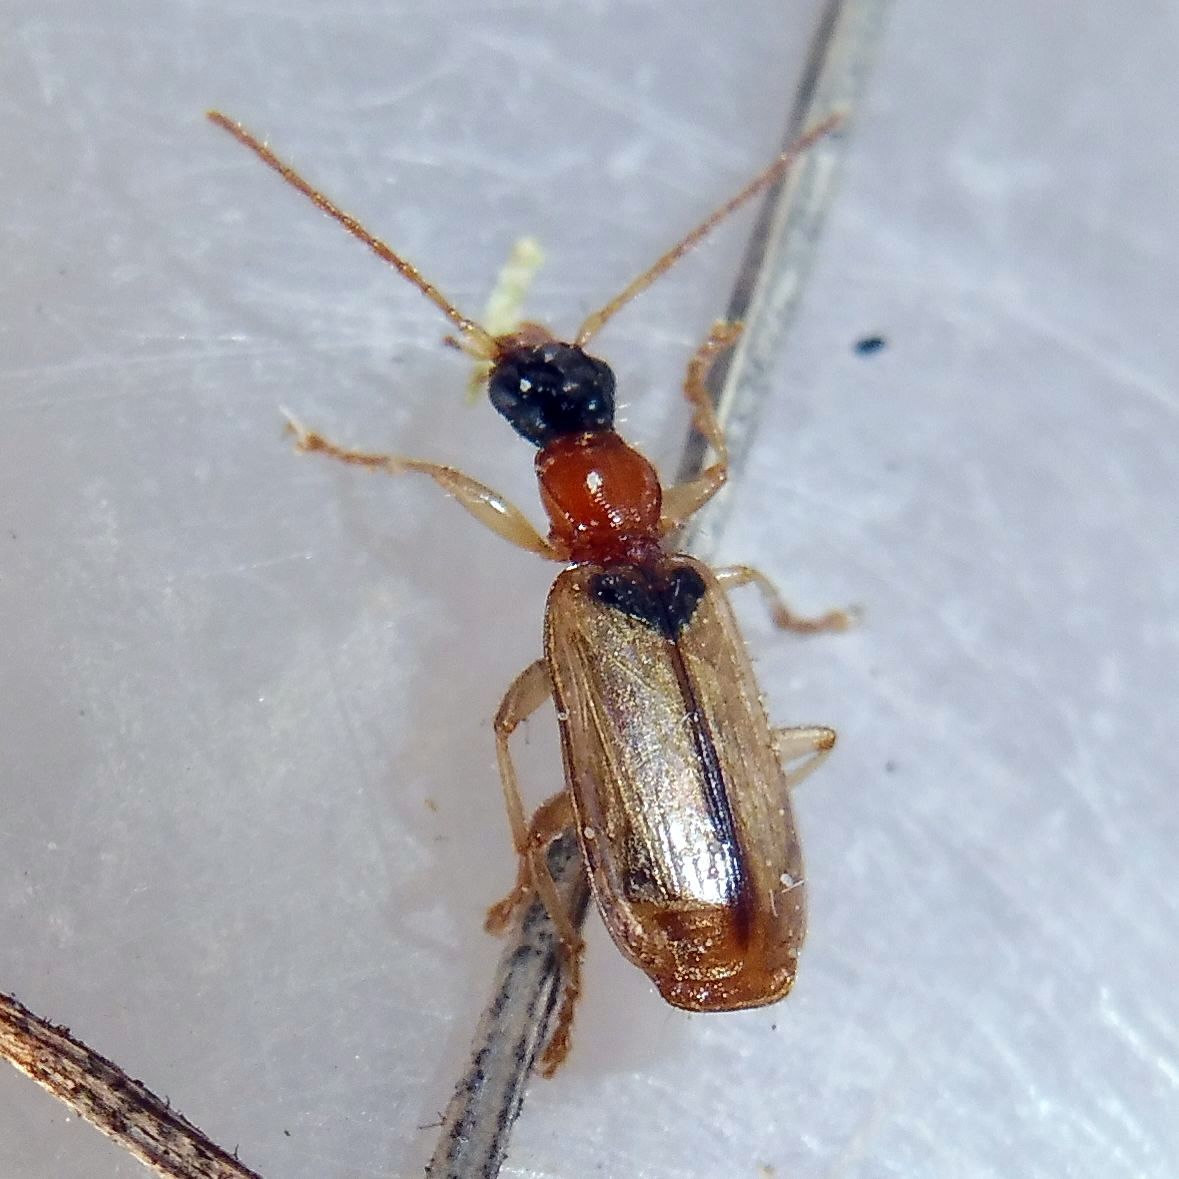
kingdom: Animalia
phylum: Arthropoda
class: Insecta
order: Coleoptera
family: Carabidae
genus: Demetrias
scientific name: Demetrias atricapillus
